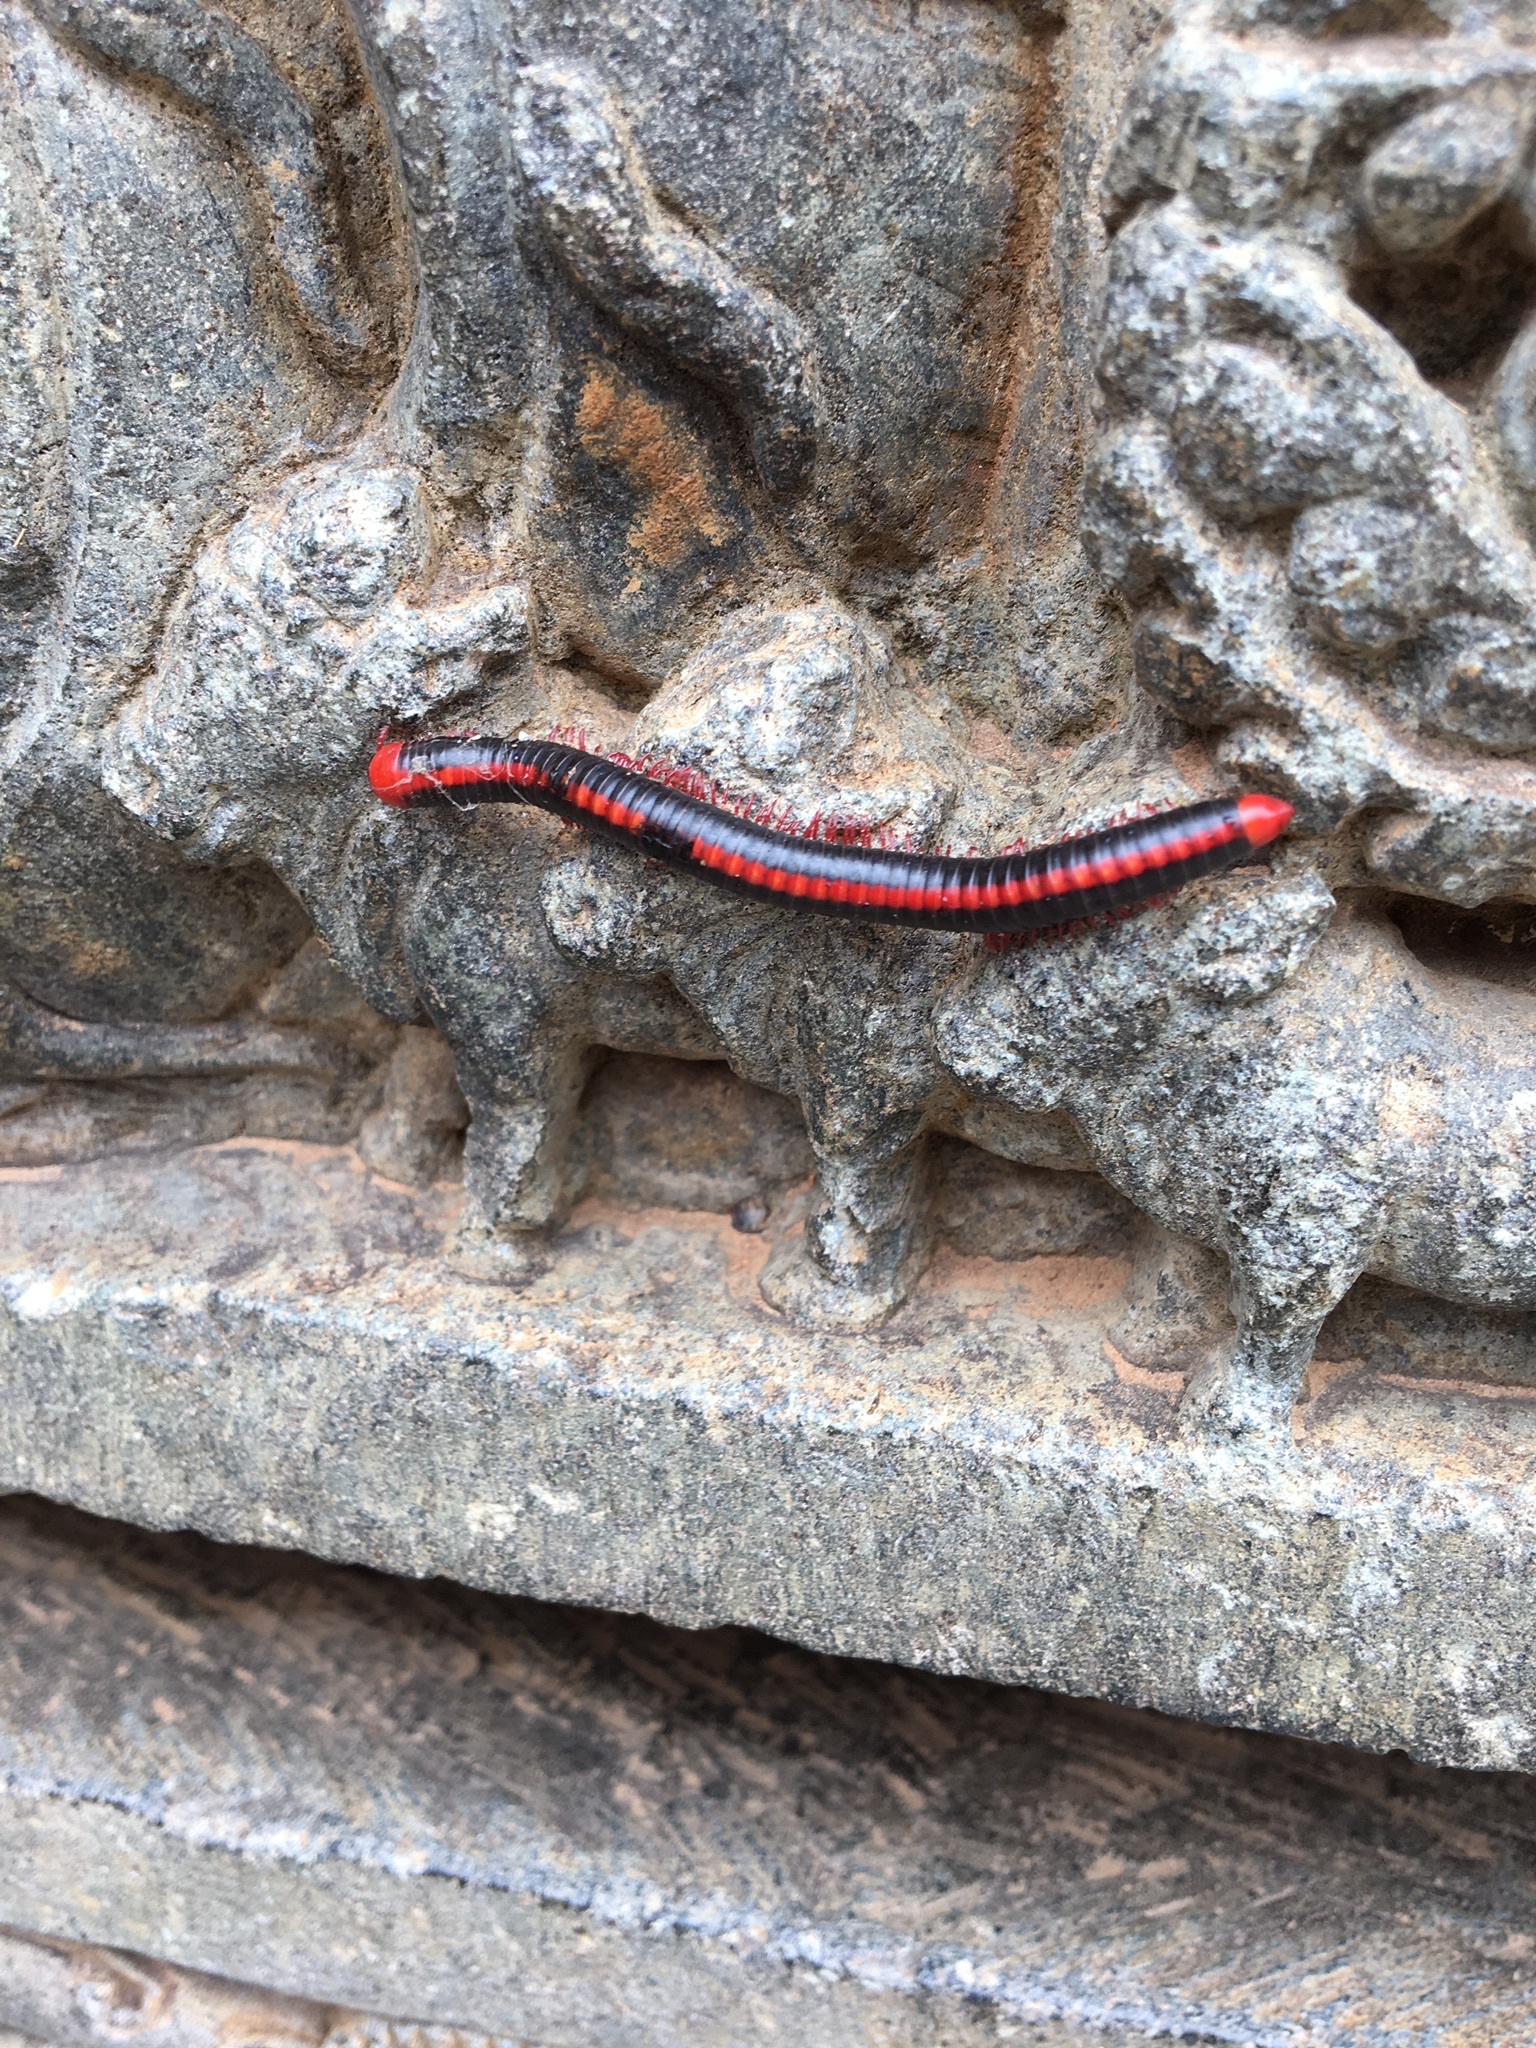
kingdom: Animalia
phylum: Arthropoda
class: Diplopoda
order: Spirobolida
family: Pachybolidae
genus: Xenobolus
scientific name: Xenobolus carnifex
